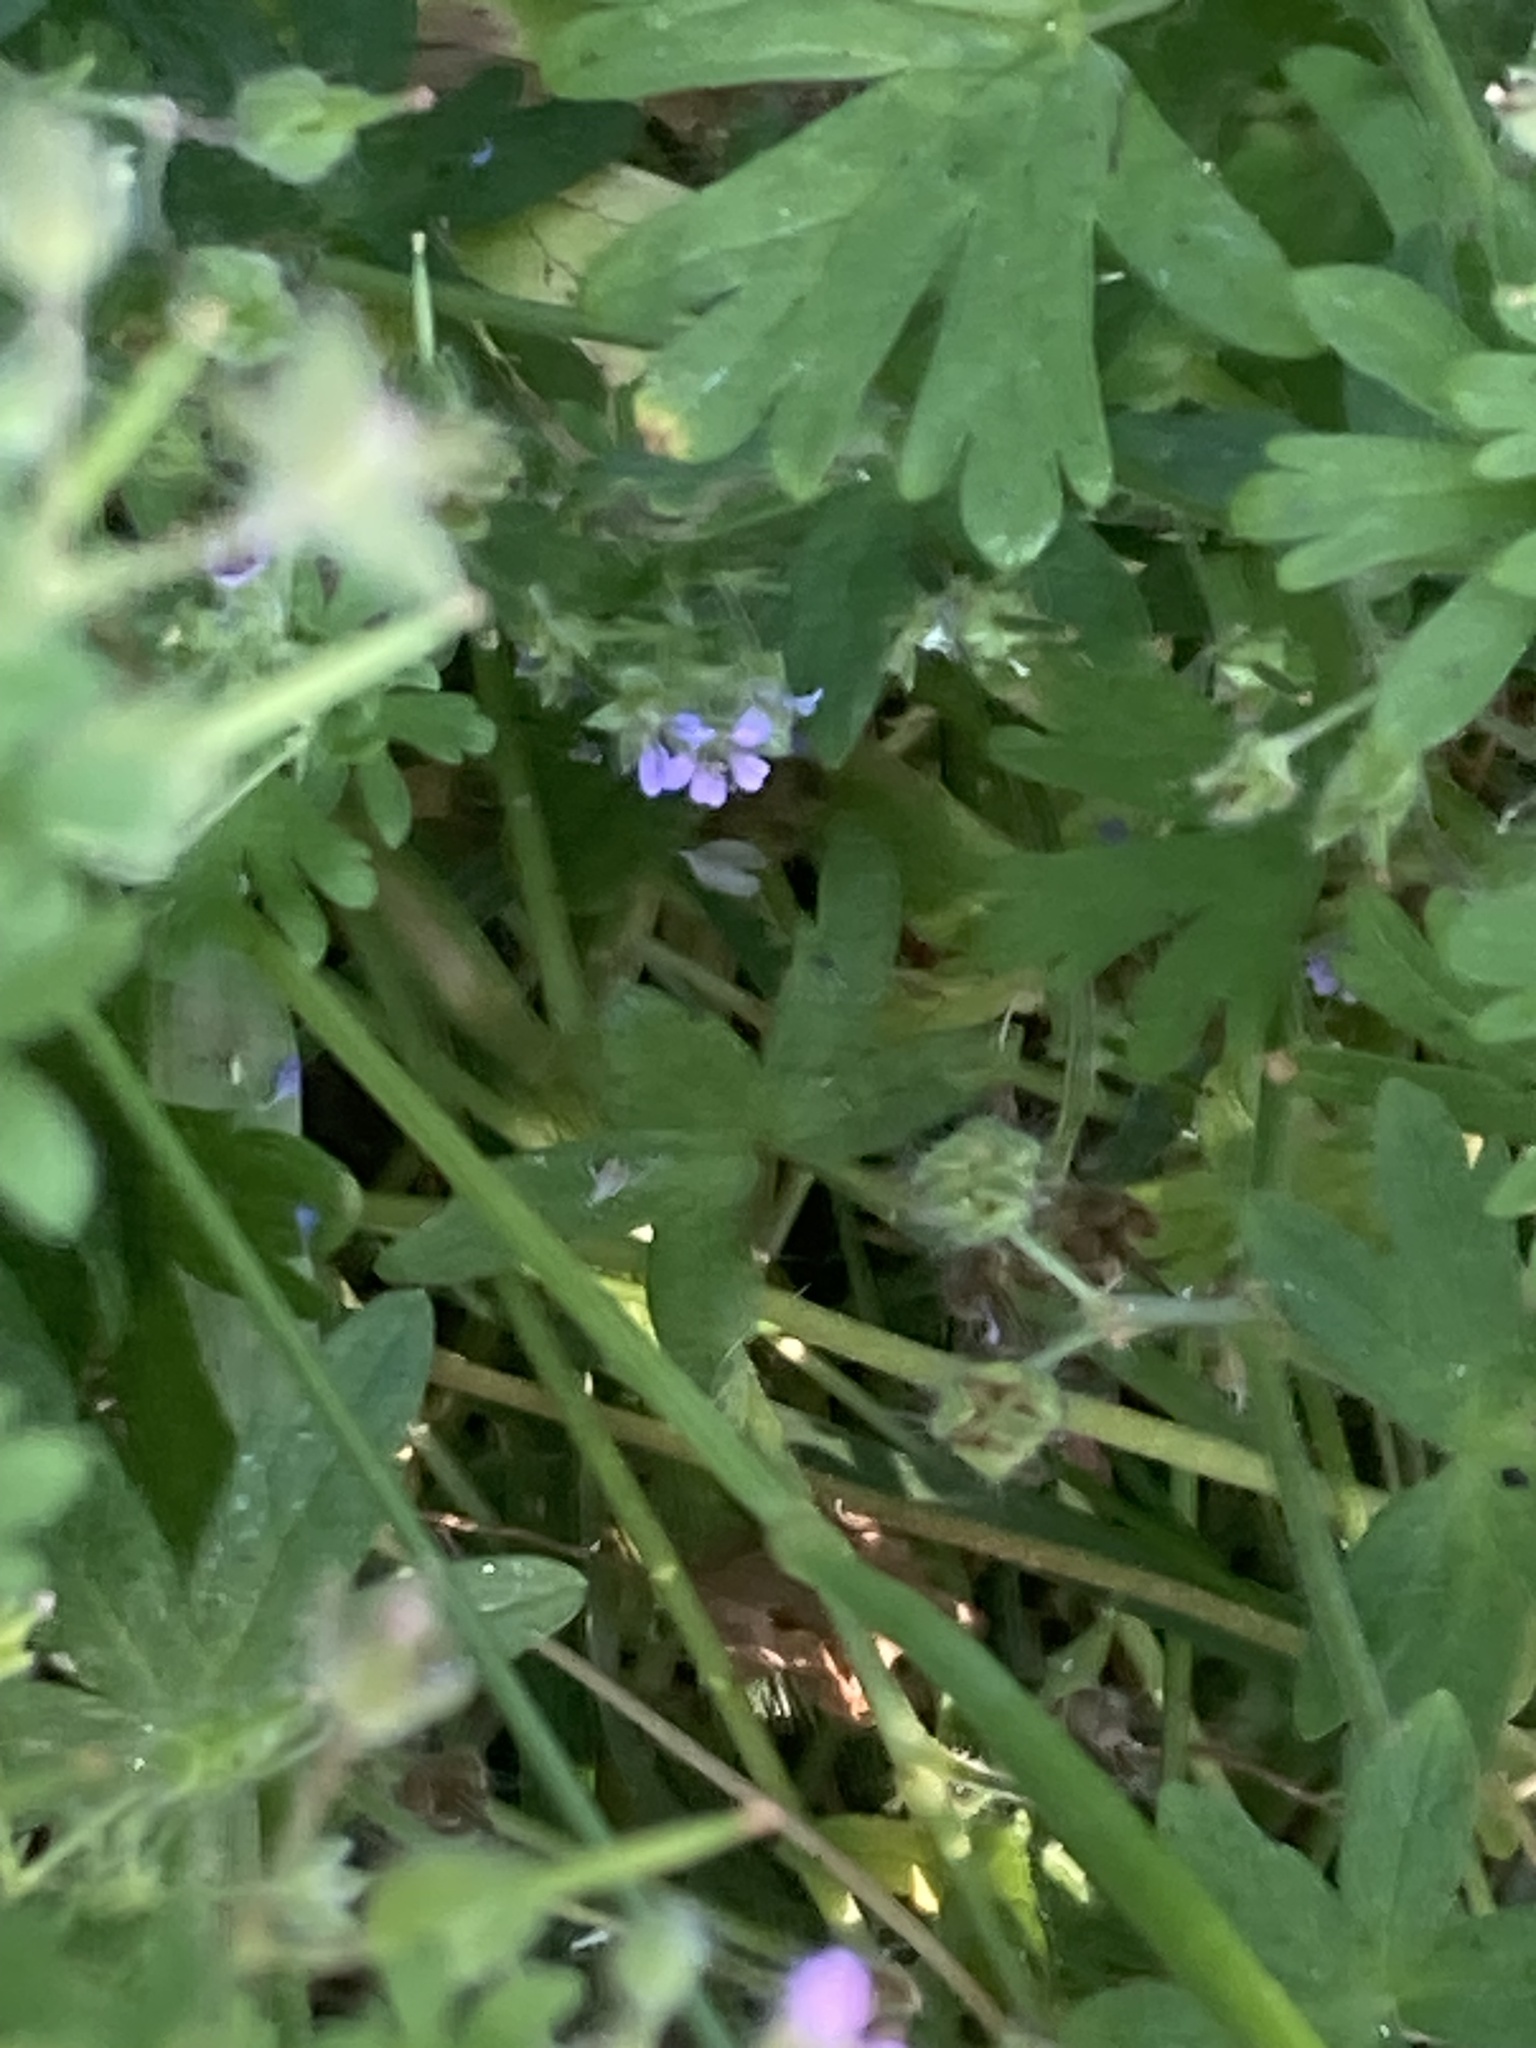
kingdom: Plantae
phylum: Tracheophyta
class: Magnoliopsida
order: Geraniales
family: Geraniaceae
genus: Geranium
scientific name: Geranium pusillum
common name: Small geranium
